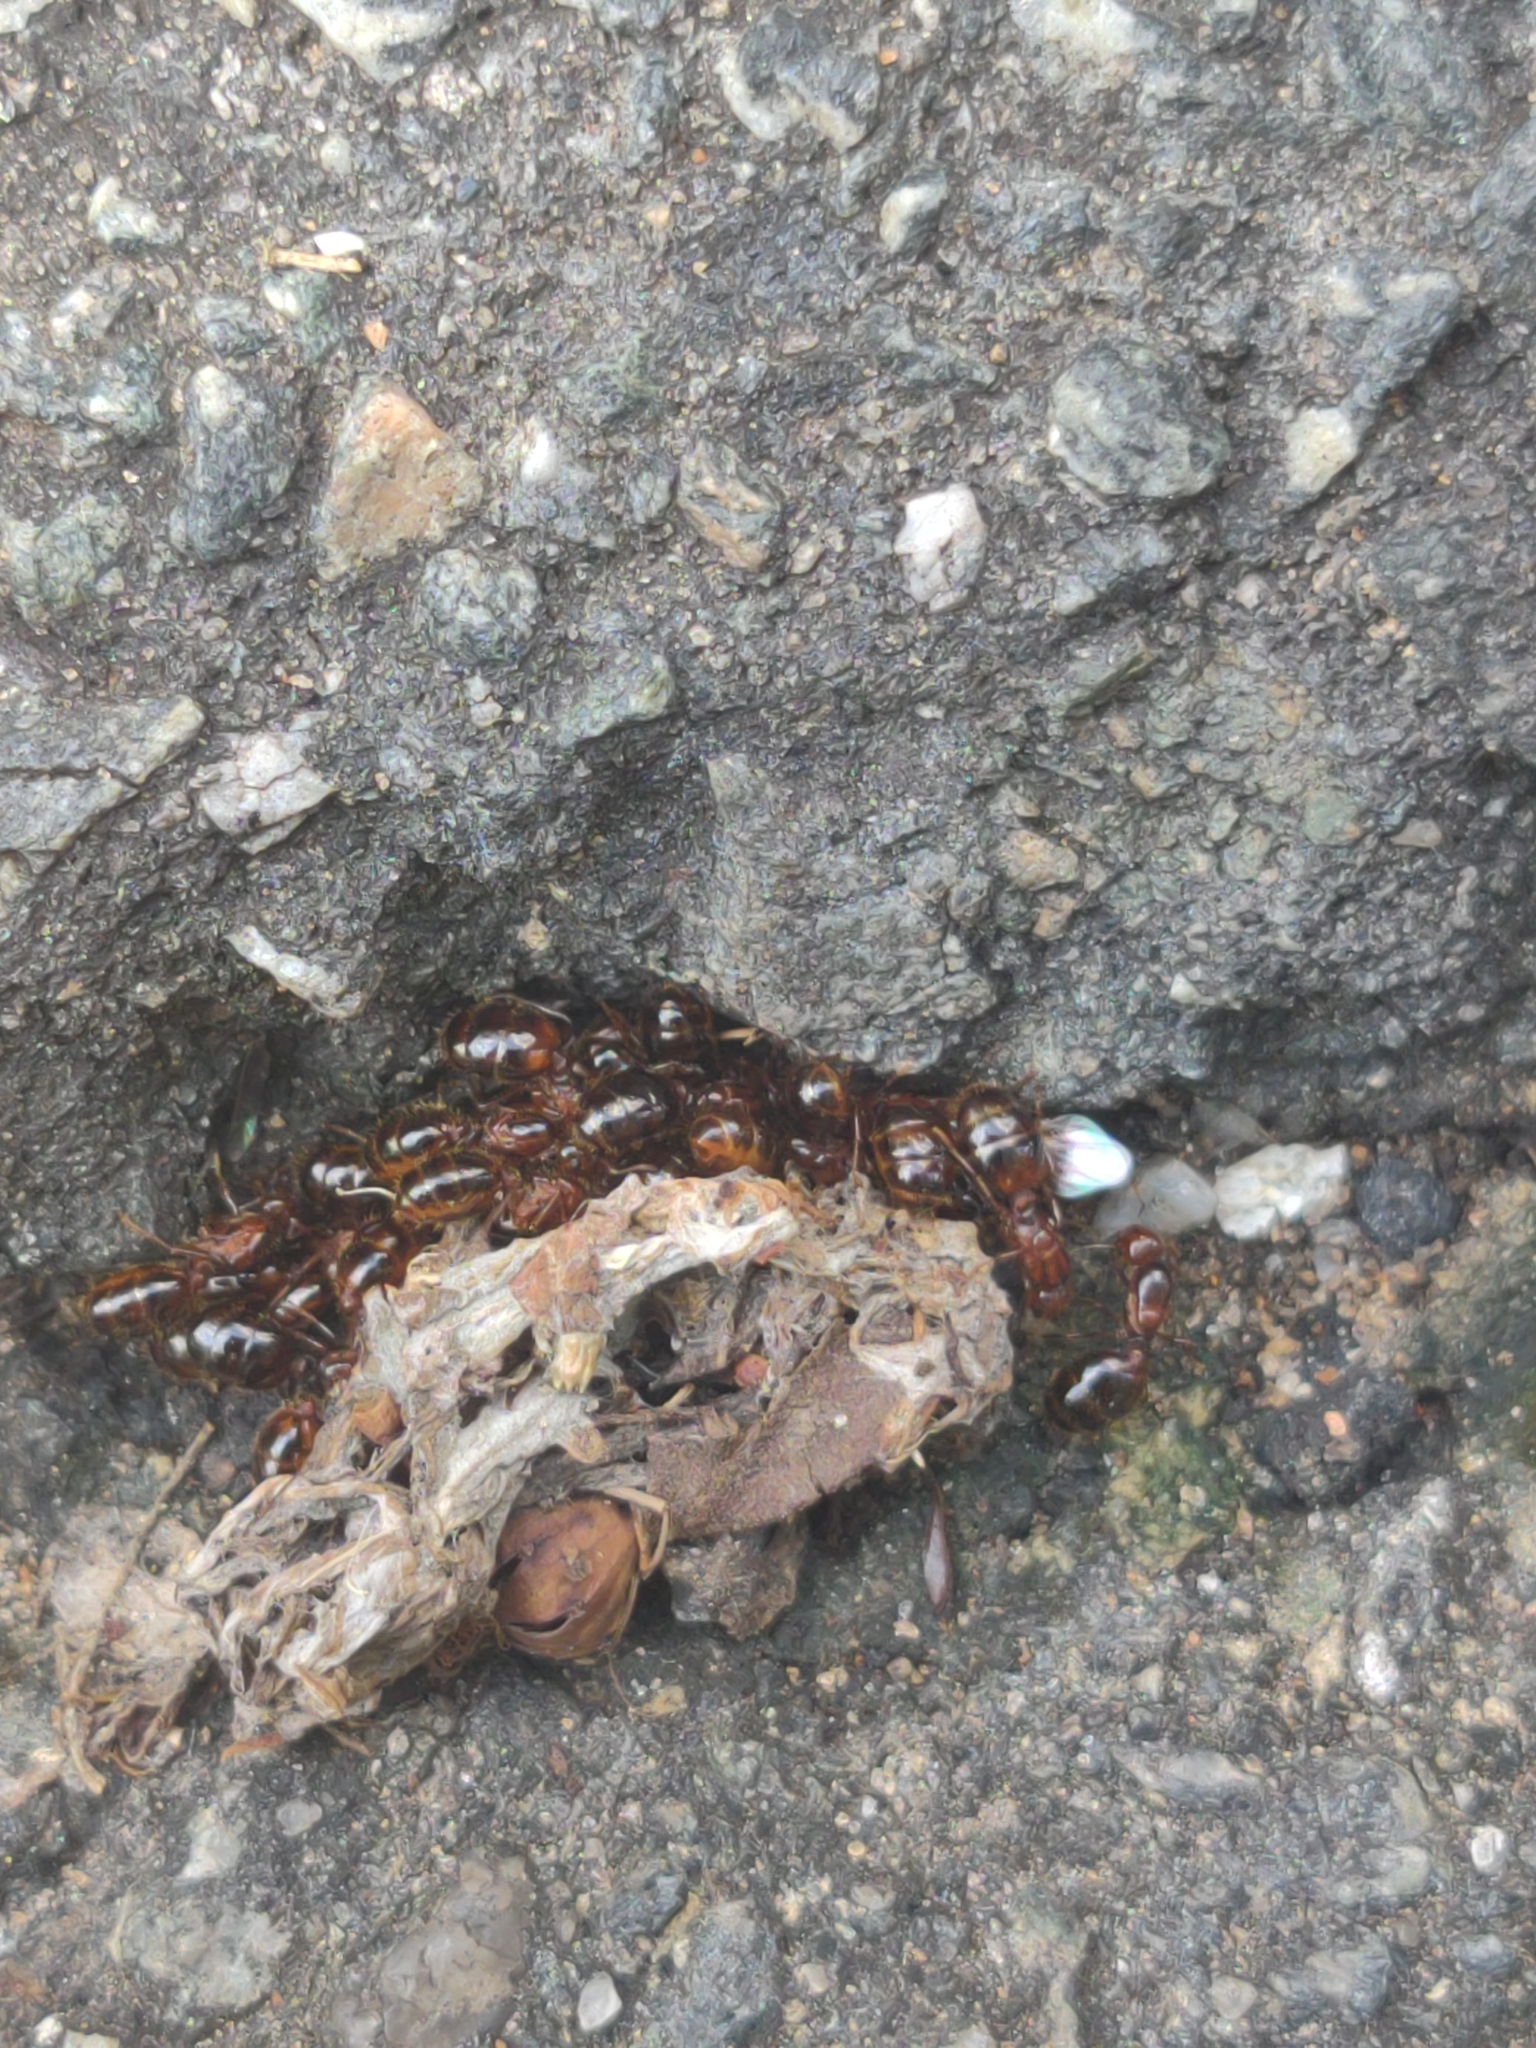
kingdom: Animalia
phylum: Arthropoda
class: Insecta
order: Hymenoptera
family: Formicidae
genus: Solenopsis
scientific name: Solenopsis invicta
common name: Red imported fire ant
